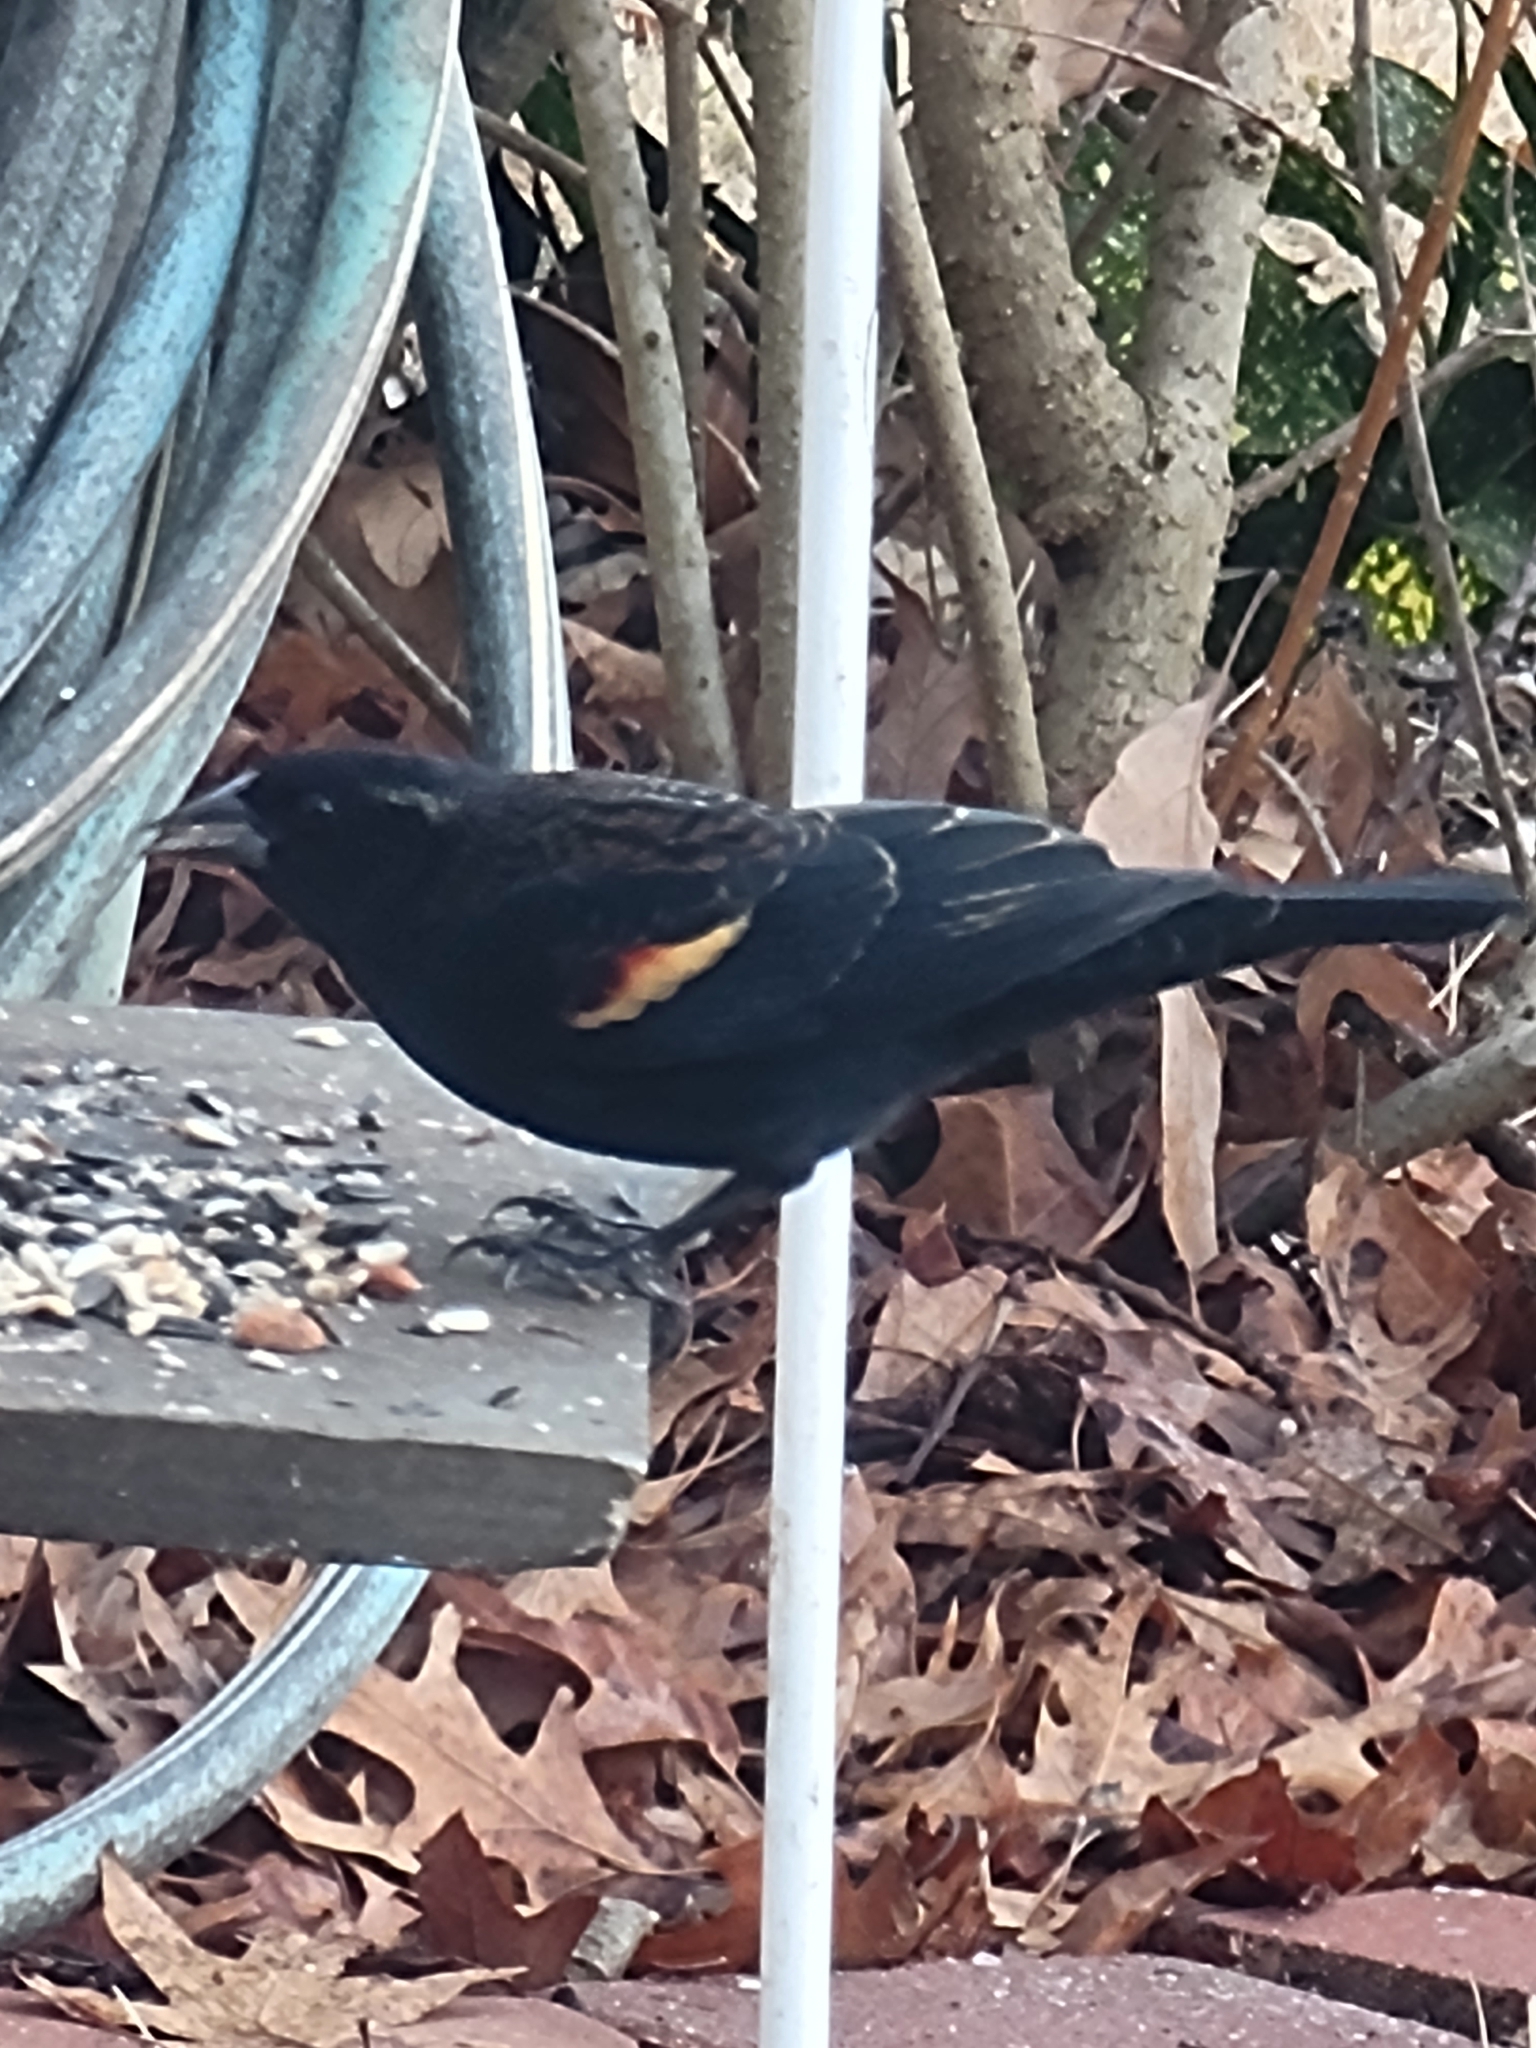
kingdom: Animalia
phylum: Chordata
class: Aves
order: Passeriformes
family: Icteridae
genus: Agelaius
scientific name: Agelaius phoeniceus
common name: Red-winged blackbird
